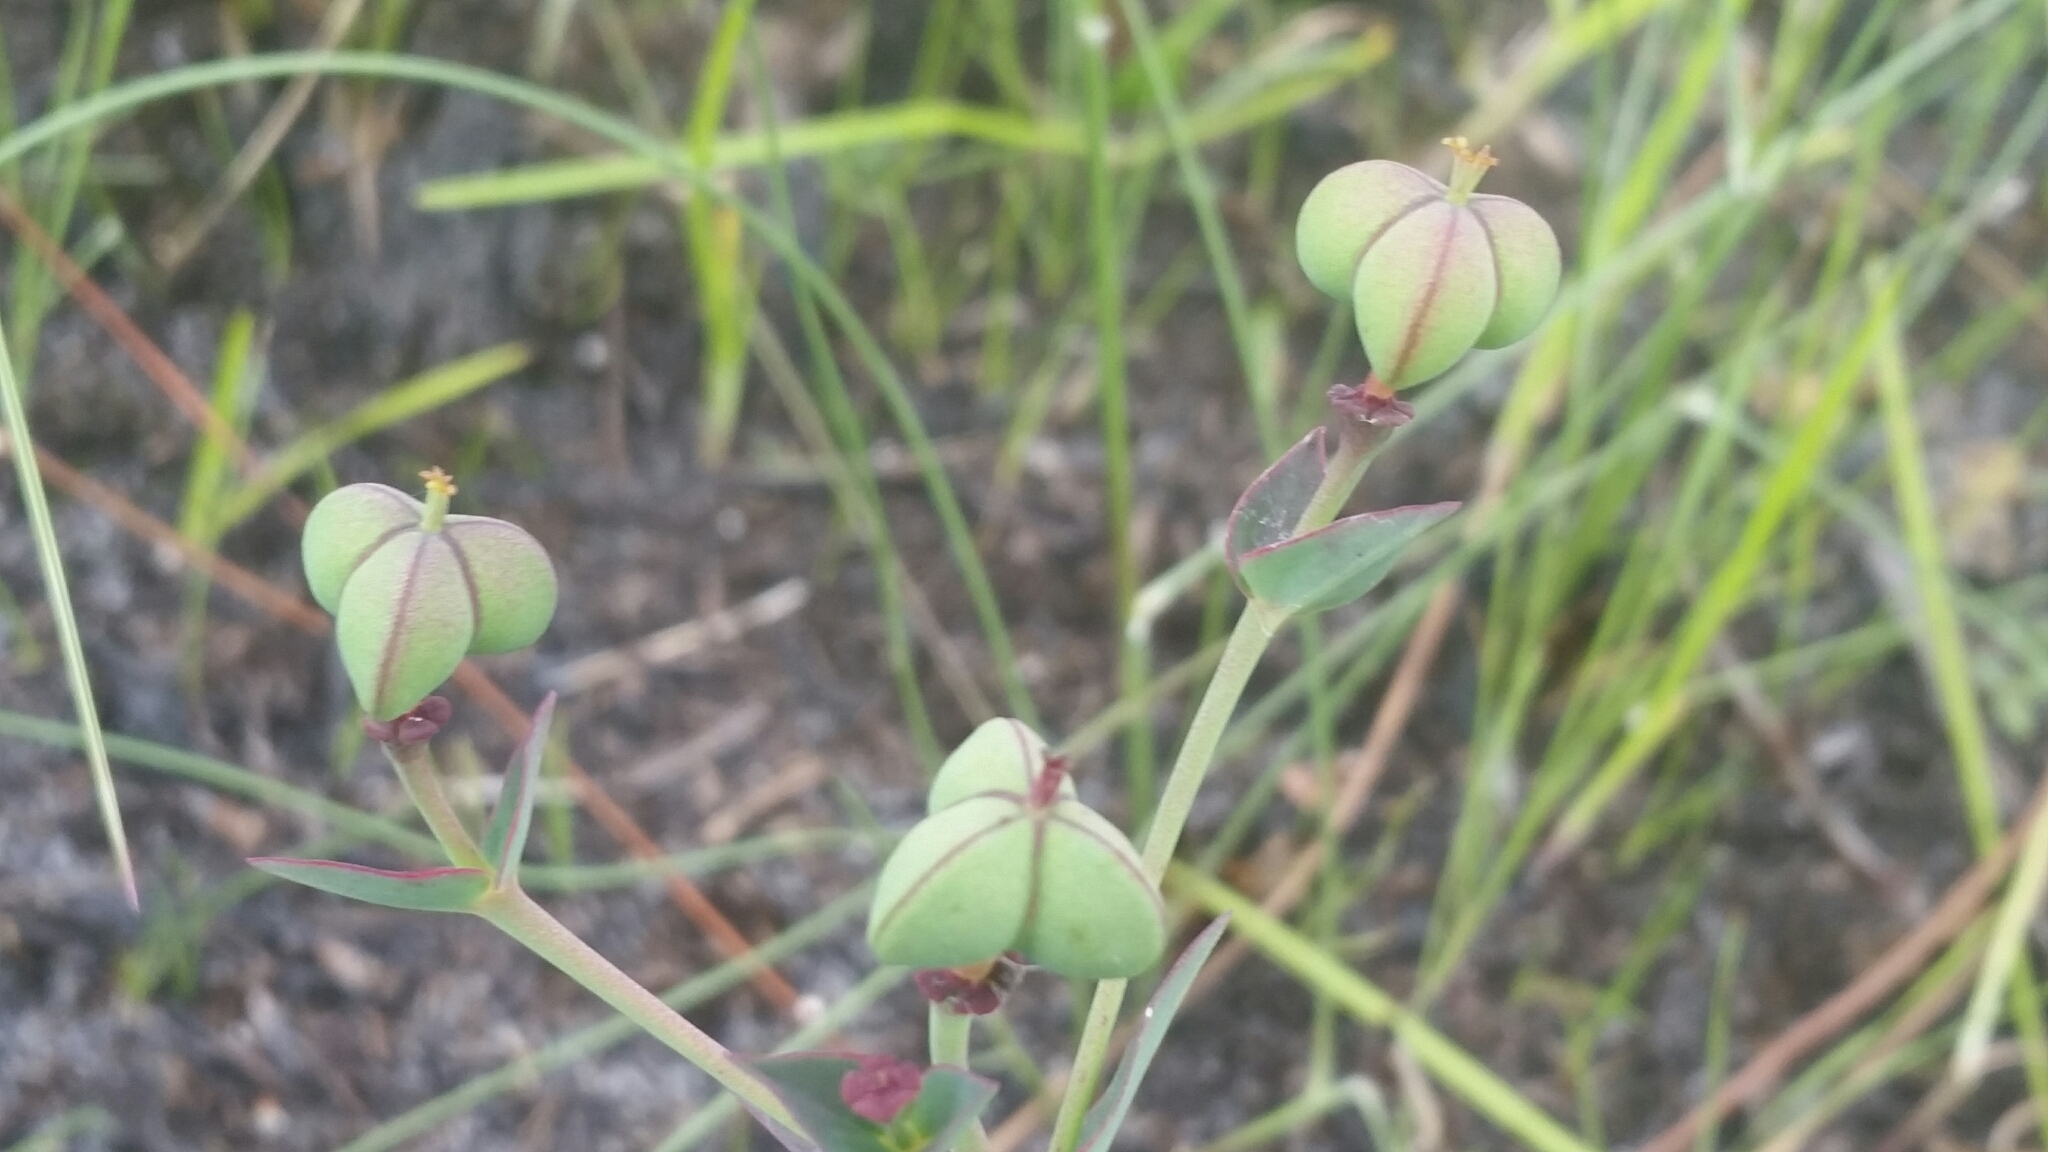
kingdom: Plantae
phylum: Tracheophyta
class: Magnoliopsida
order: Malpighiales
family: Euphorbiaceae
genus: Euphorbia
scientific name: Euphorbia inundata
